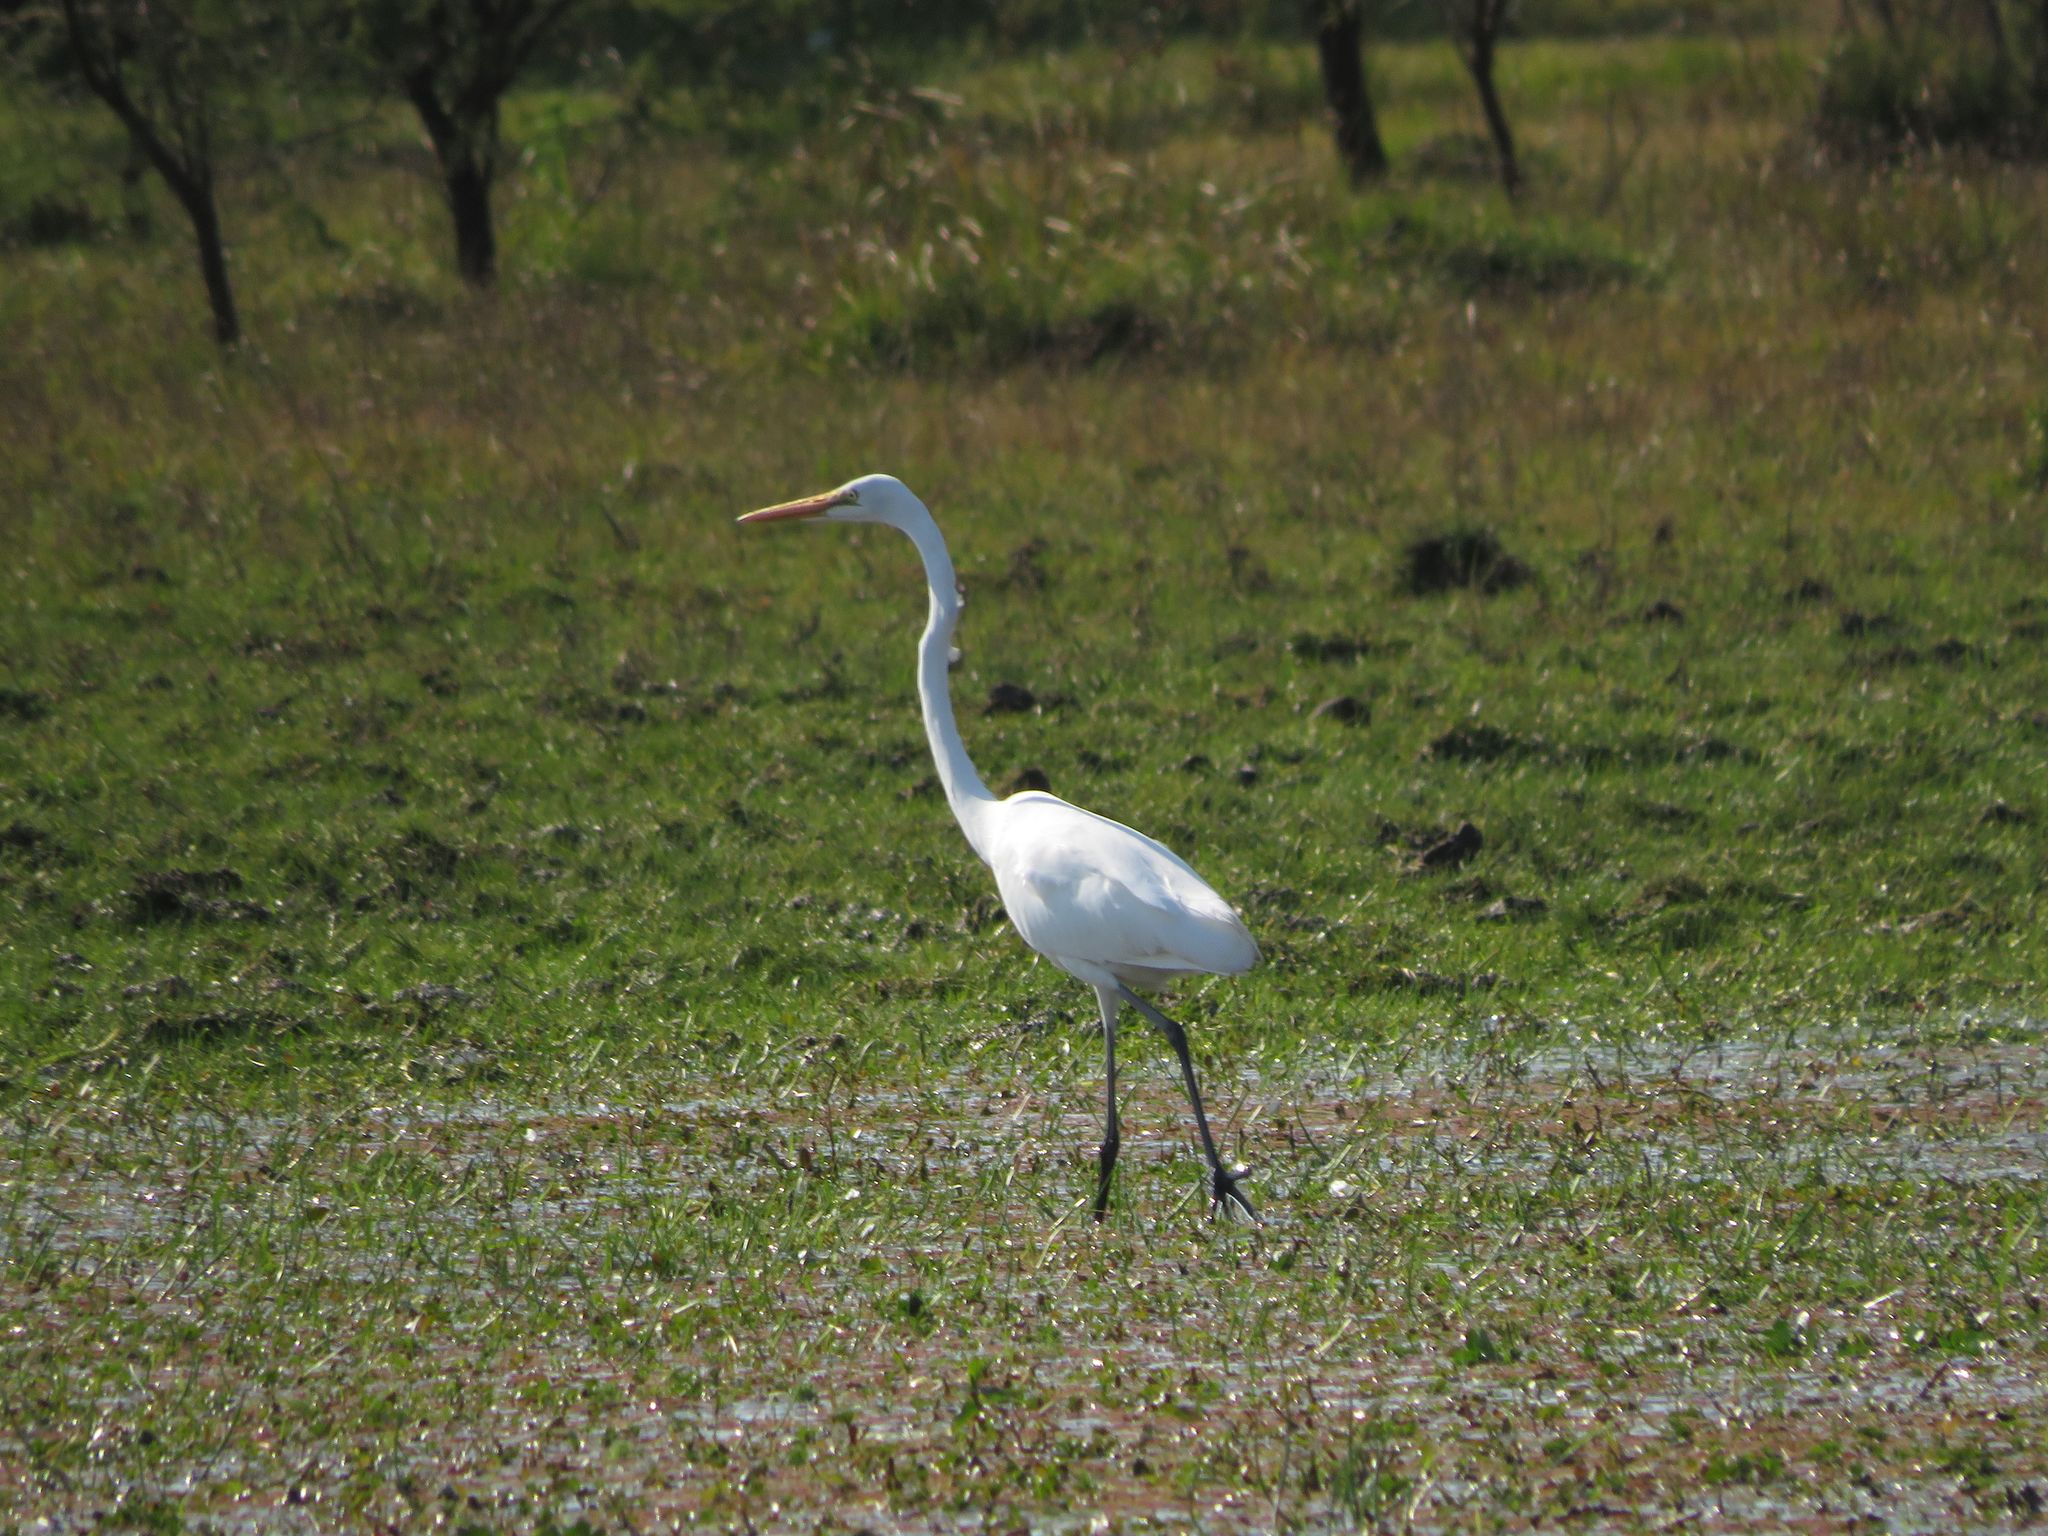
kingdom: Animalia
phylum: Chordata
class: Aves
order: Pelecaniformes
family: Ardeidae
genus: Ardea
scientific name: Ardea alba
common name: Great egret
